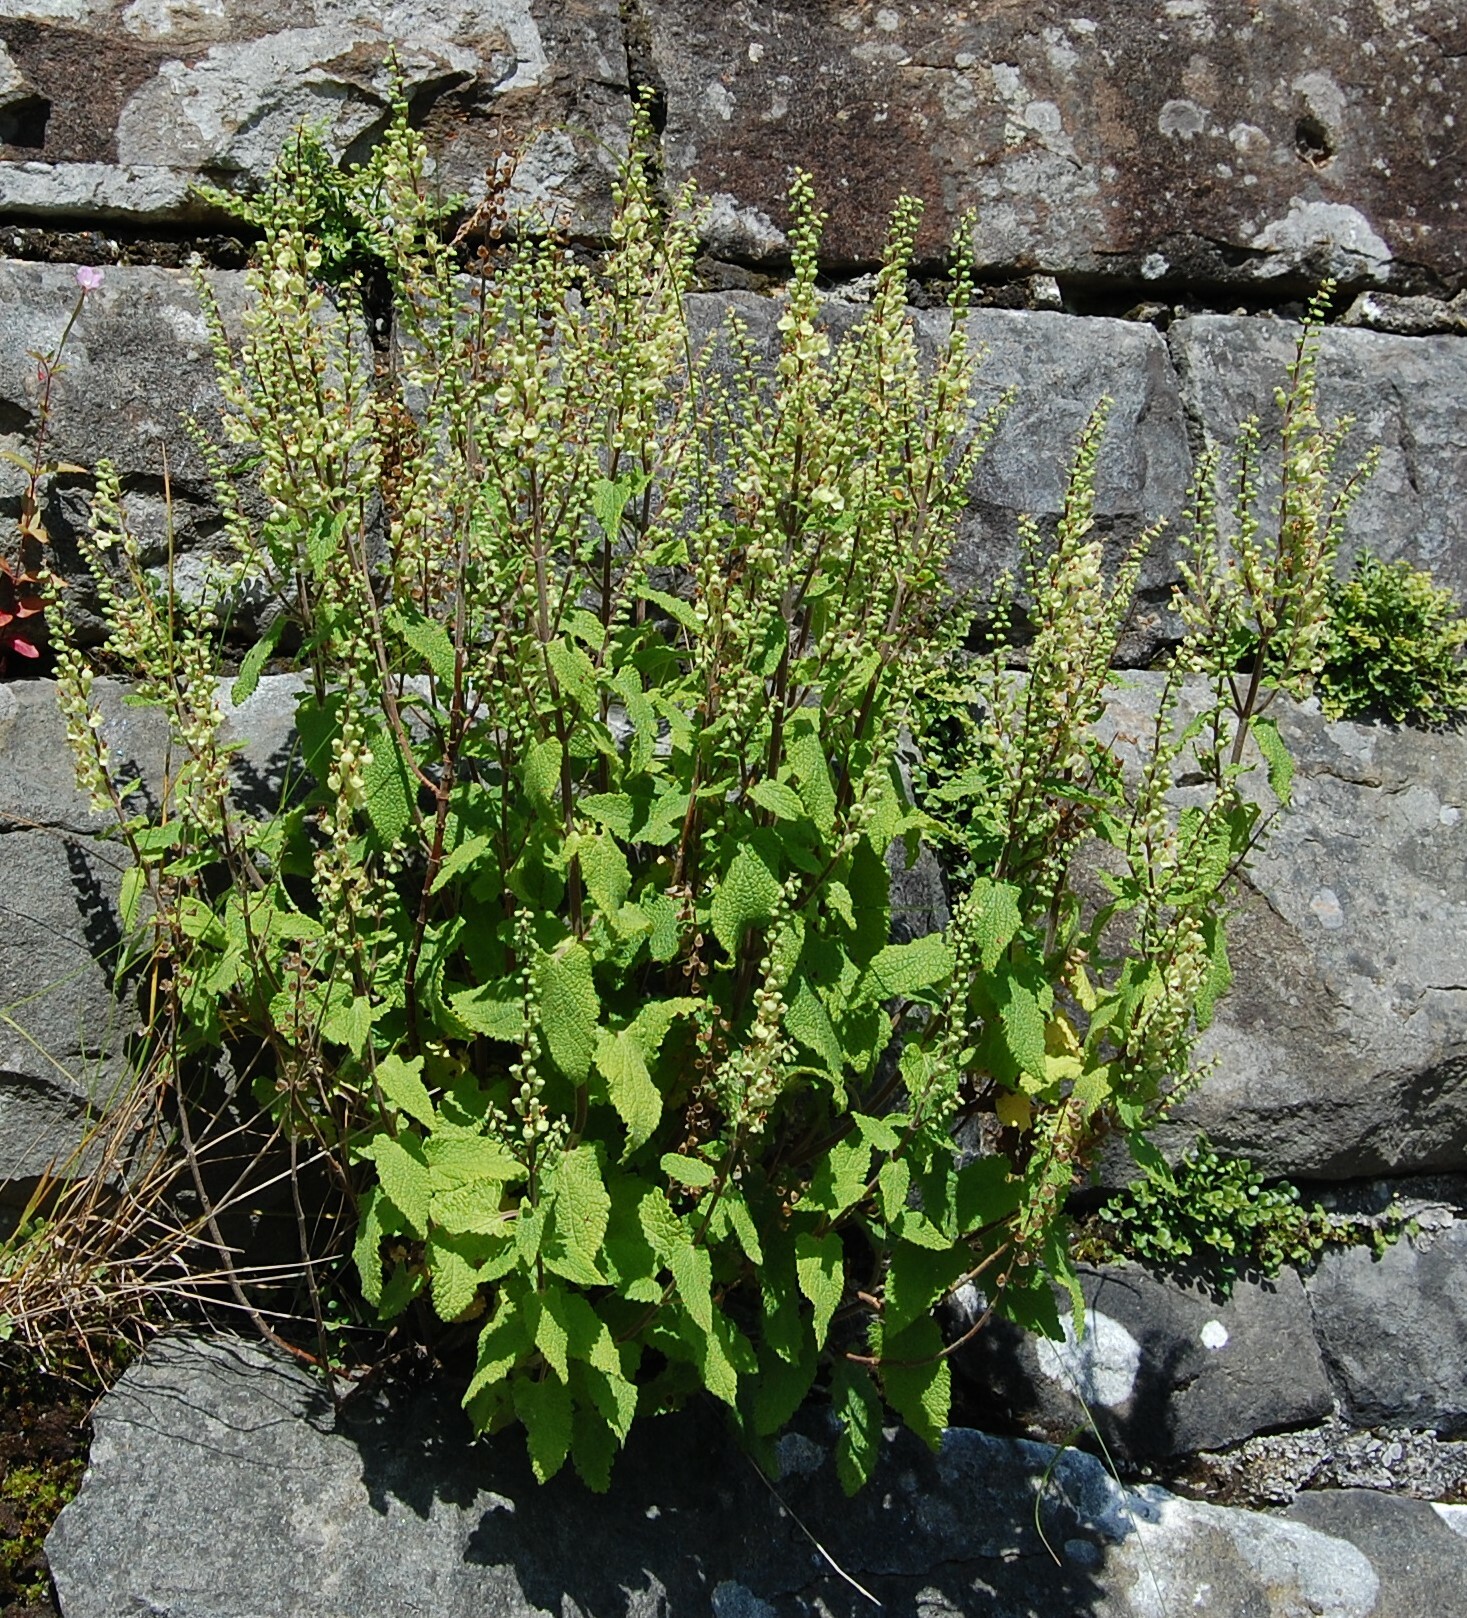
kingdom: Plantae
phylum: Tracheophyta
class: Magnoliopsida
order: Lamiales
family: Lamiaceae
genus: Teucrium
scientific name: Teucrium scorodonia
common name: Woodland germander
